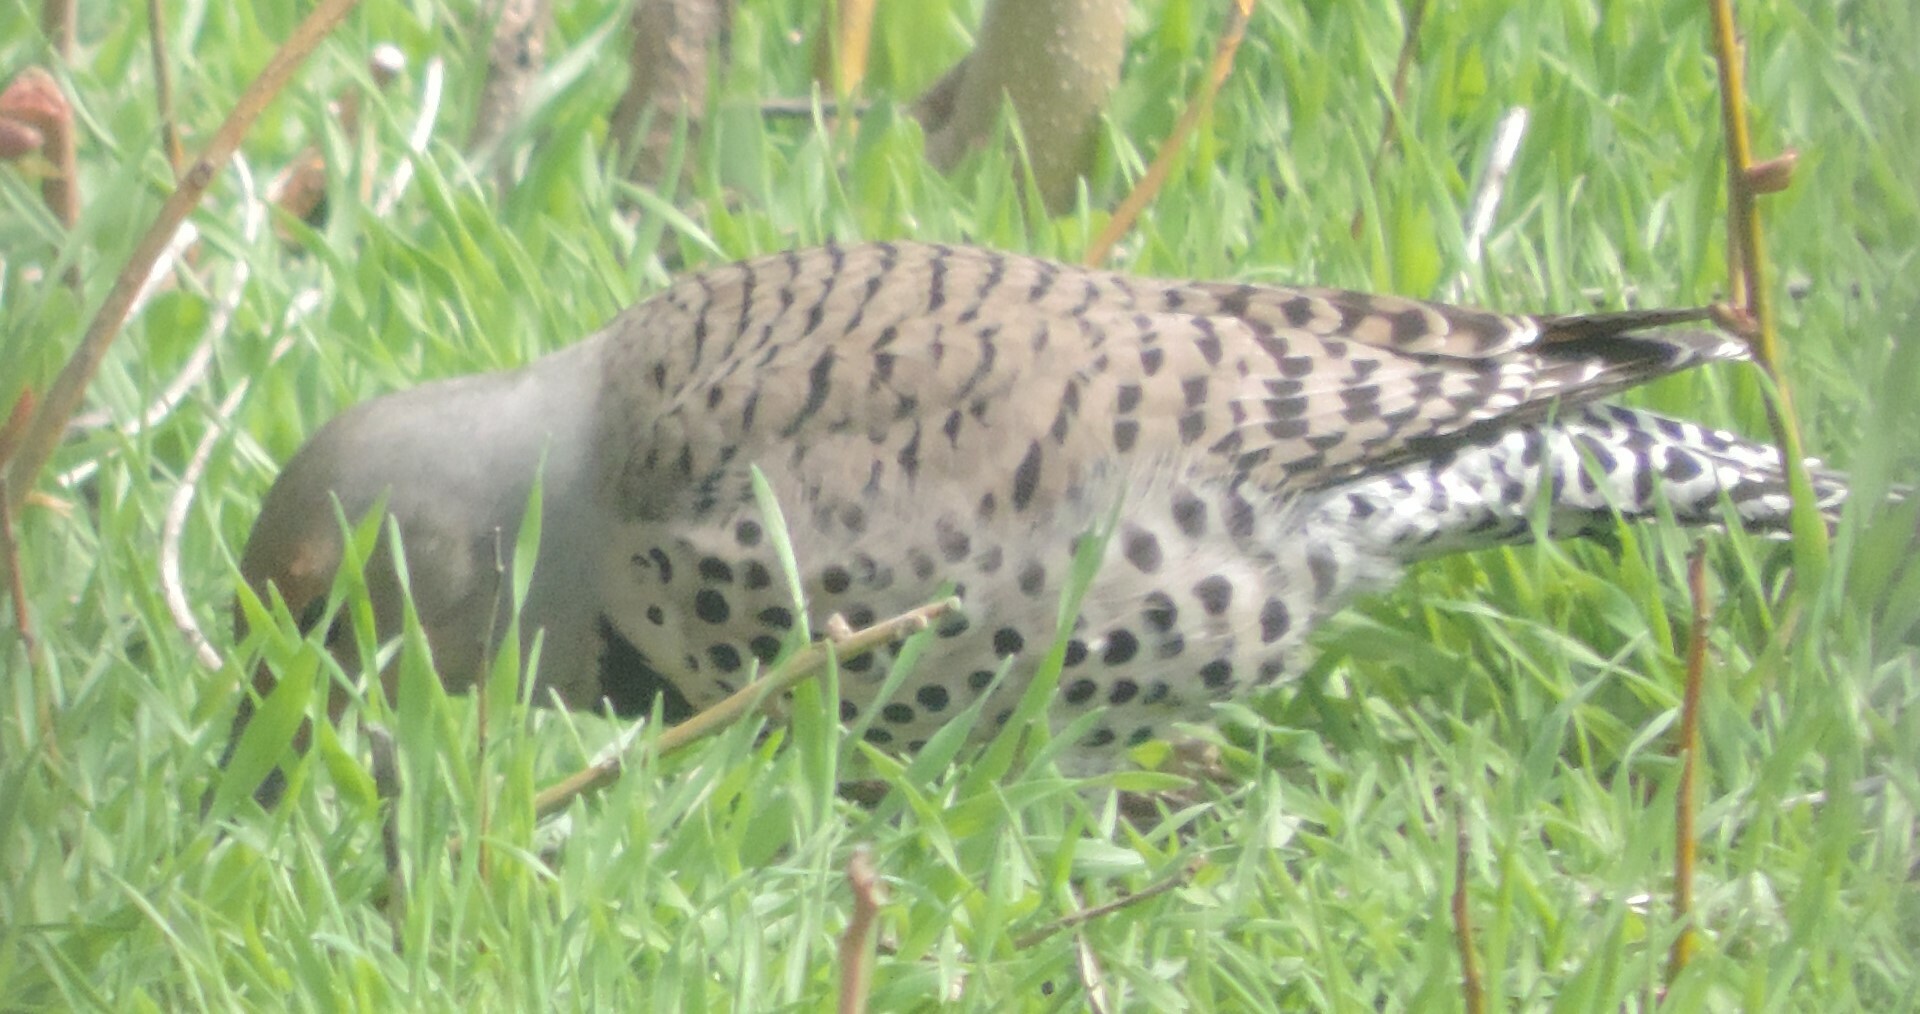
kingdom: Animalia
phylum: Chordata
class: Aves
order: Piciformes
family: Picidae
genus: Colaptes
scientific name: Colaptes auratus
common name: Northern flicker
